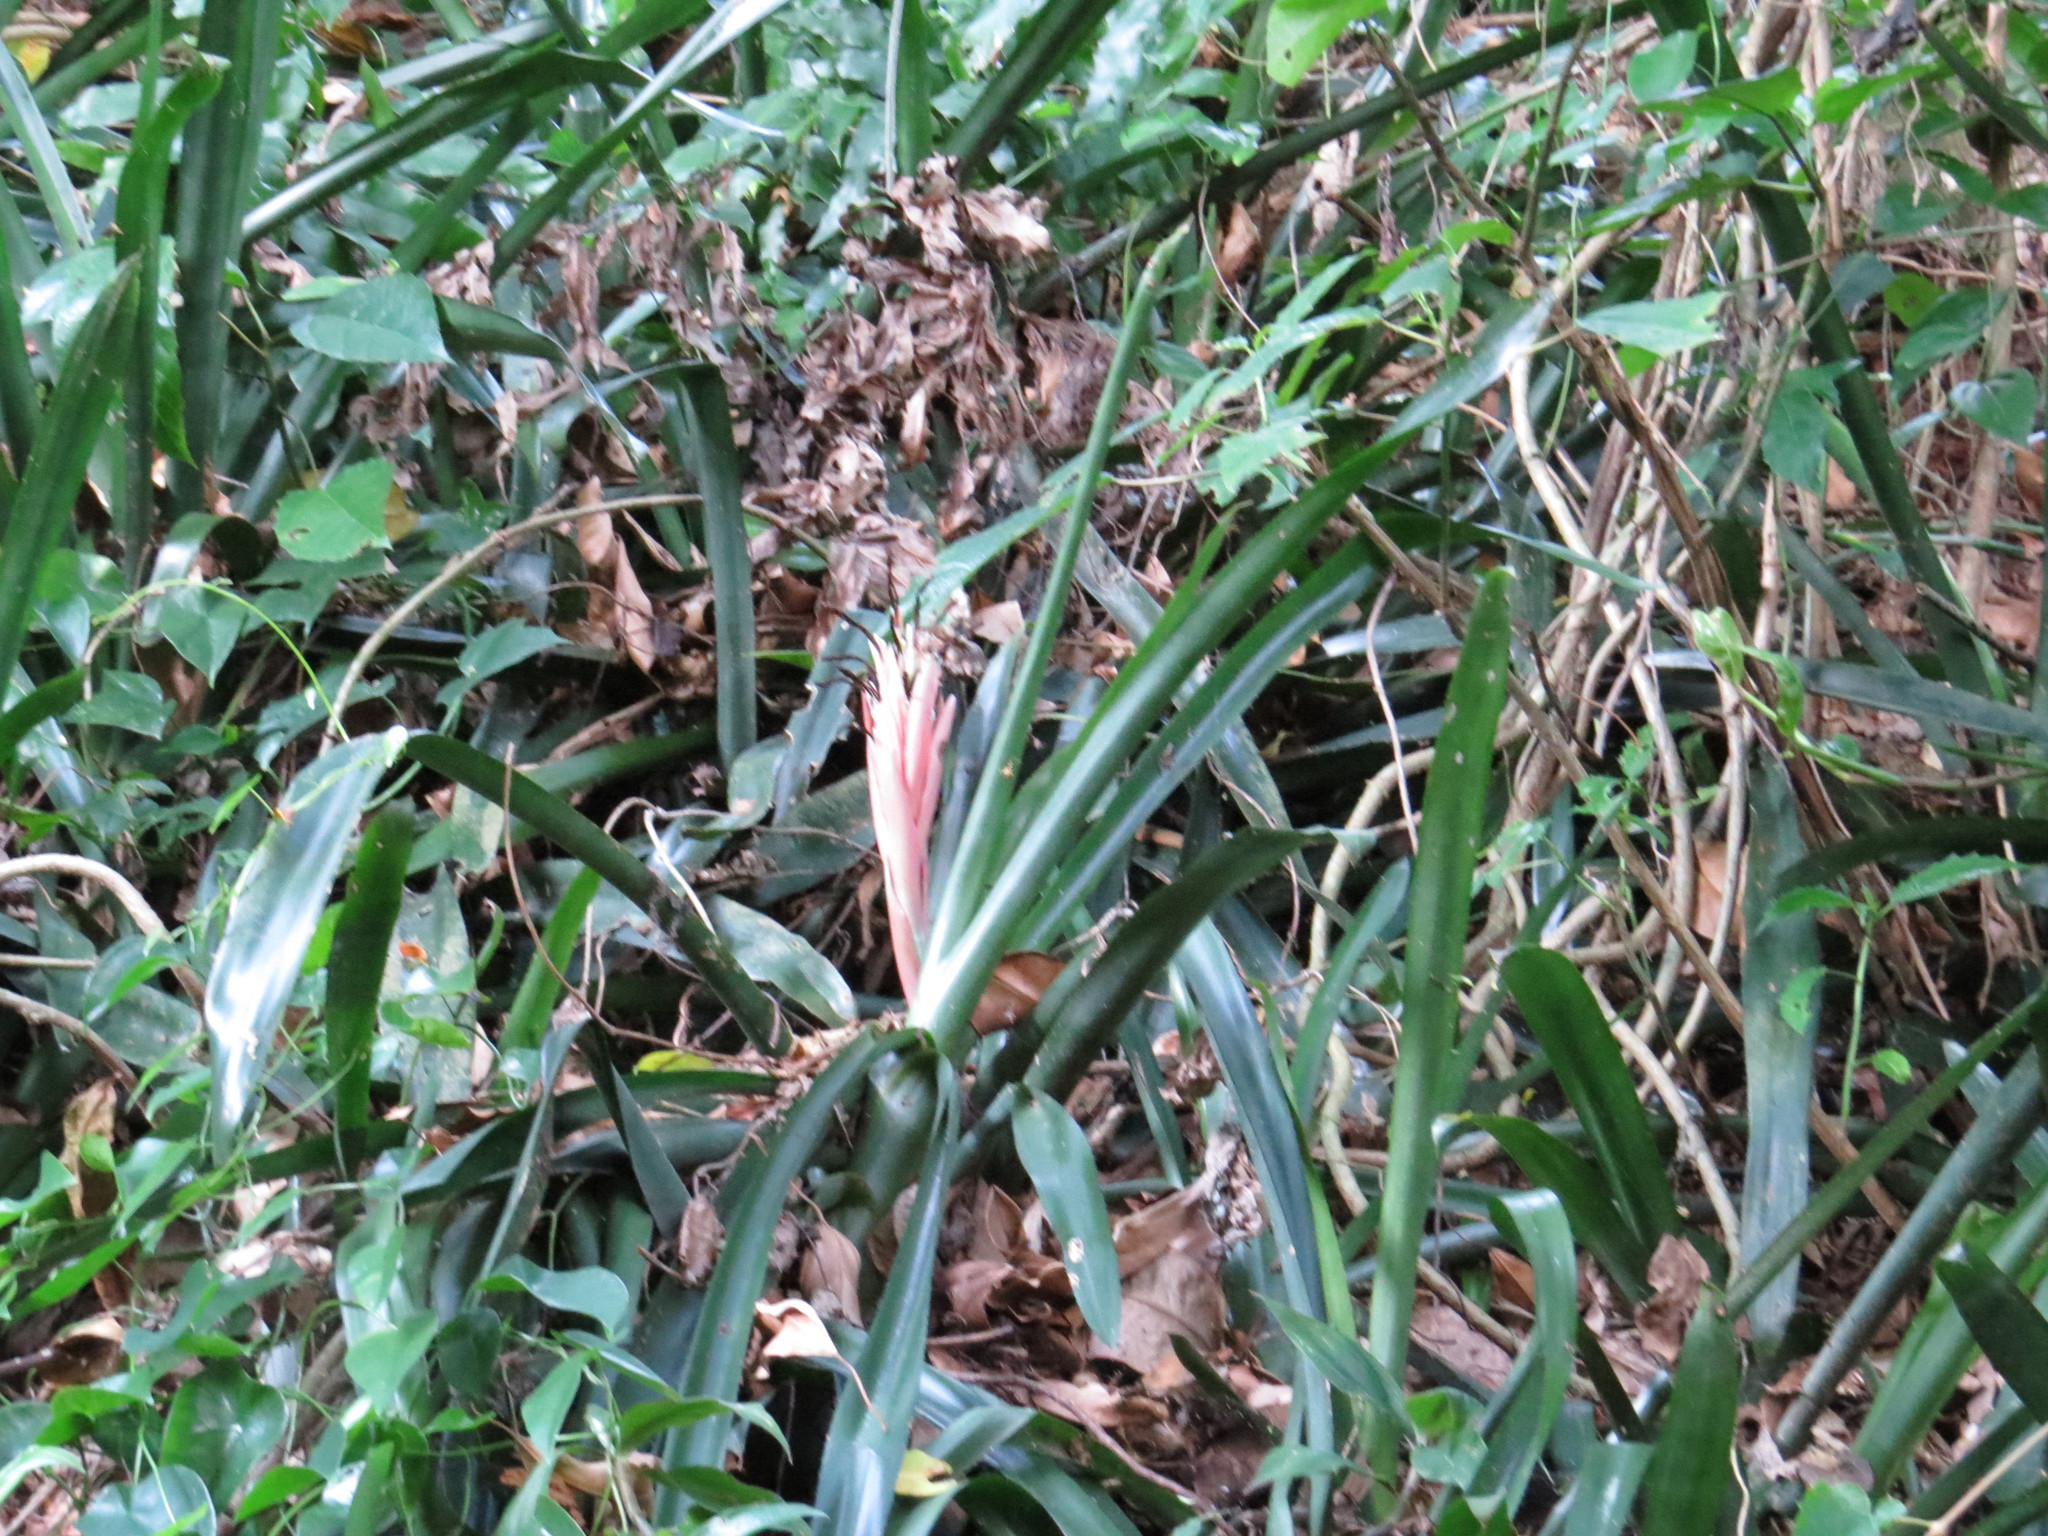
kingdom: Plantae
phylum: Tracheophyta
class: Liliopsida
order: Poales
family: Bromeliaceae
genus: Billbergia
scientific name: Billbergia pyramidalis
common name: Foolproofplant
